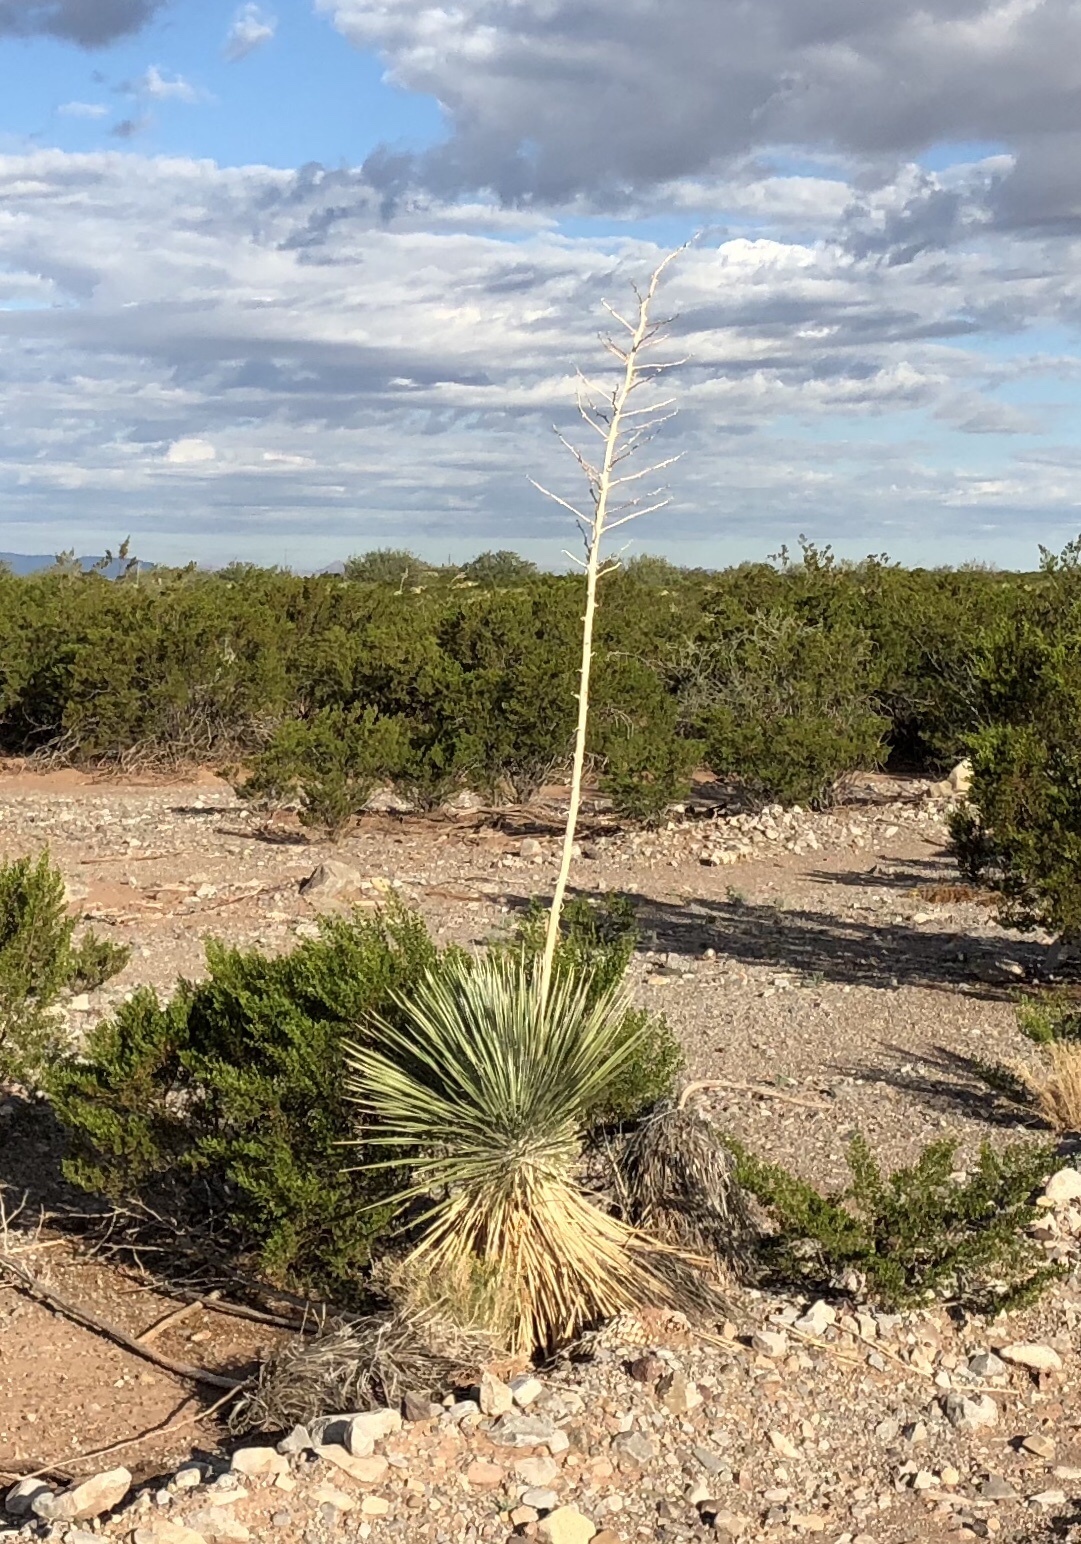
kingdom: Plantae
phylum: Tracheophyta
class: Liliopsida
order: Asparagales
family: Asparagaceae
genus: Yucca
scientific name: Yucca elata
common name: Palmella
